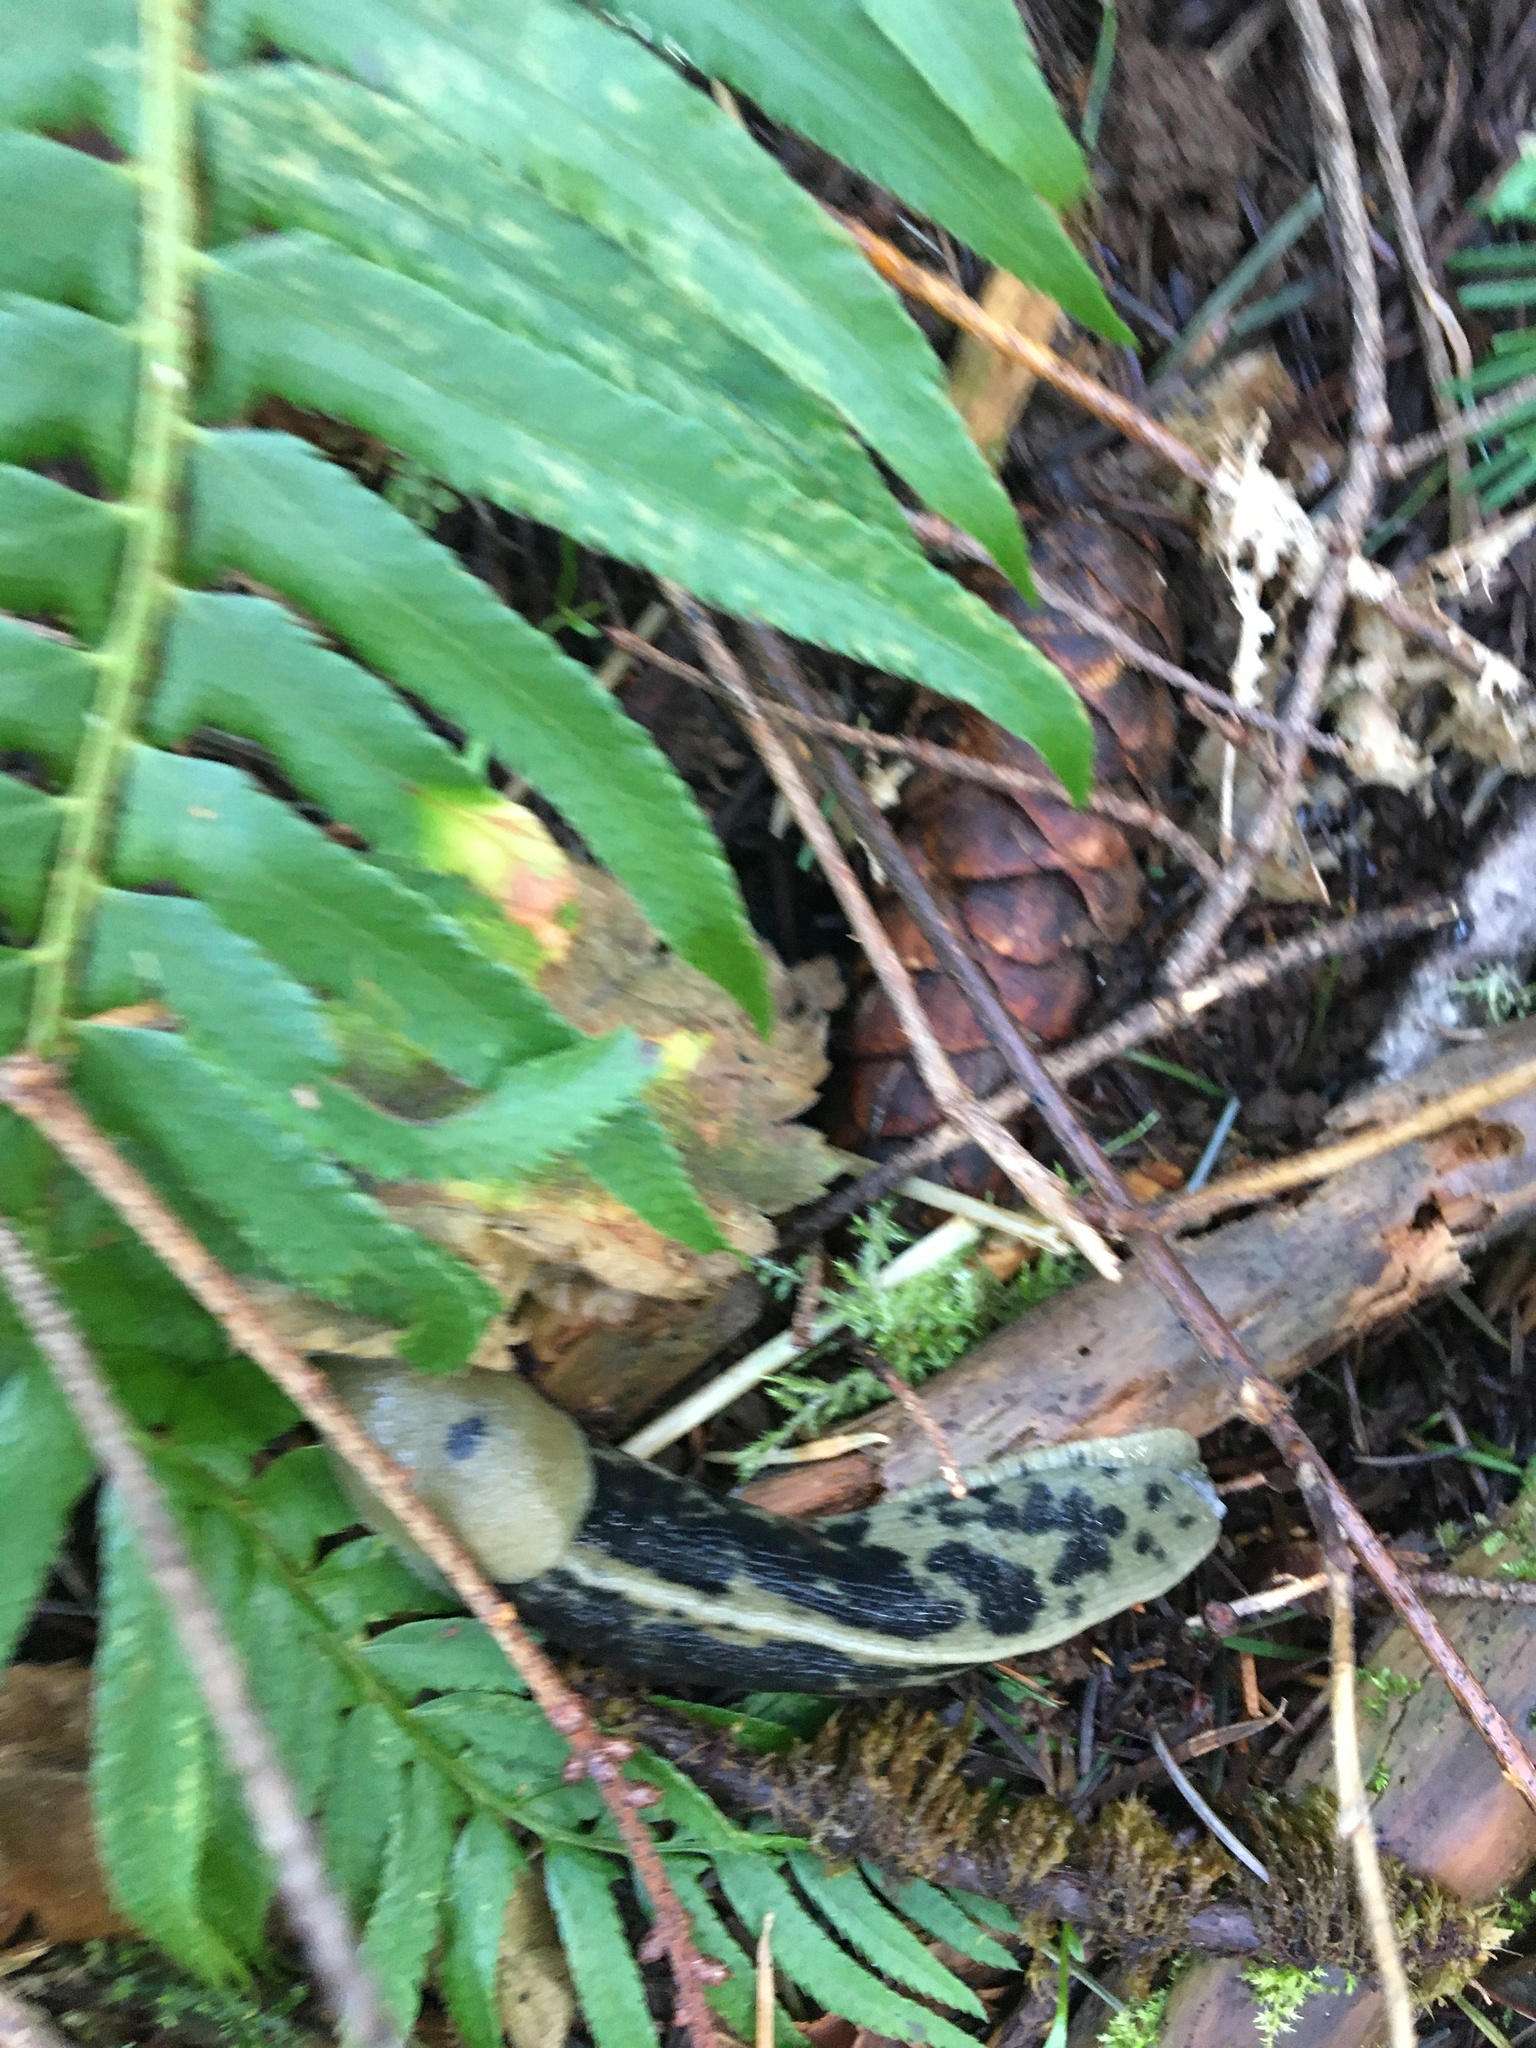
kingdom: Animalia
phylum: Mollusca
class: Gastropoda
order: Stylommatophora
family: Ariolimacidae
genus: Ariolimax
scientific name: Ariolimax columbianus
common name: Pacific banana slug
